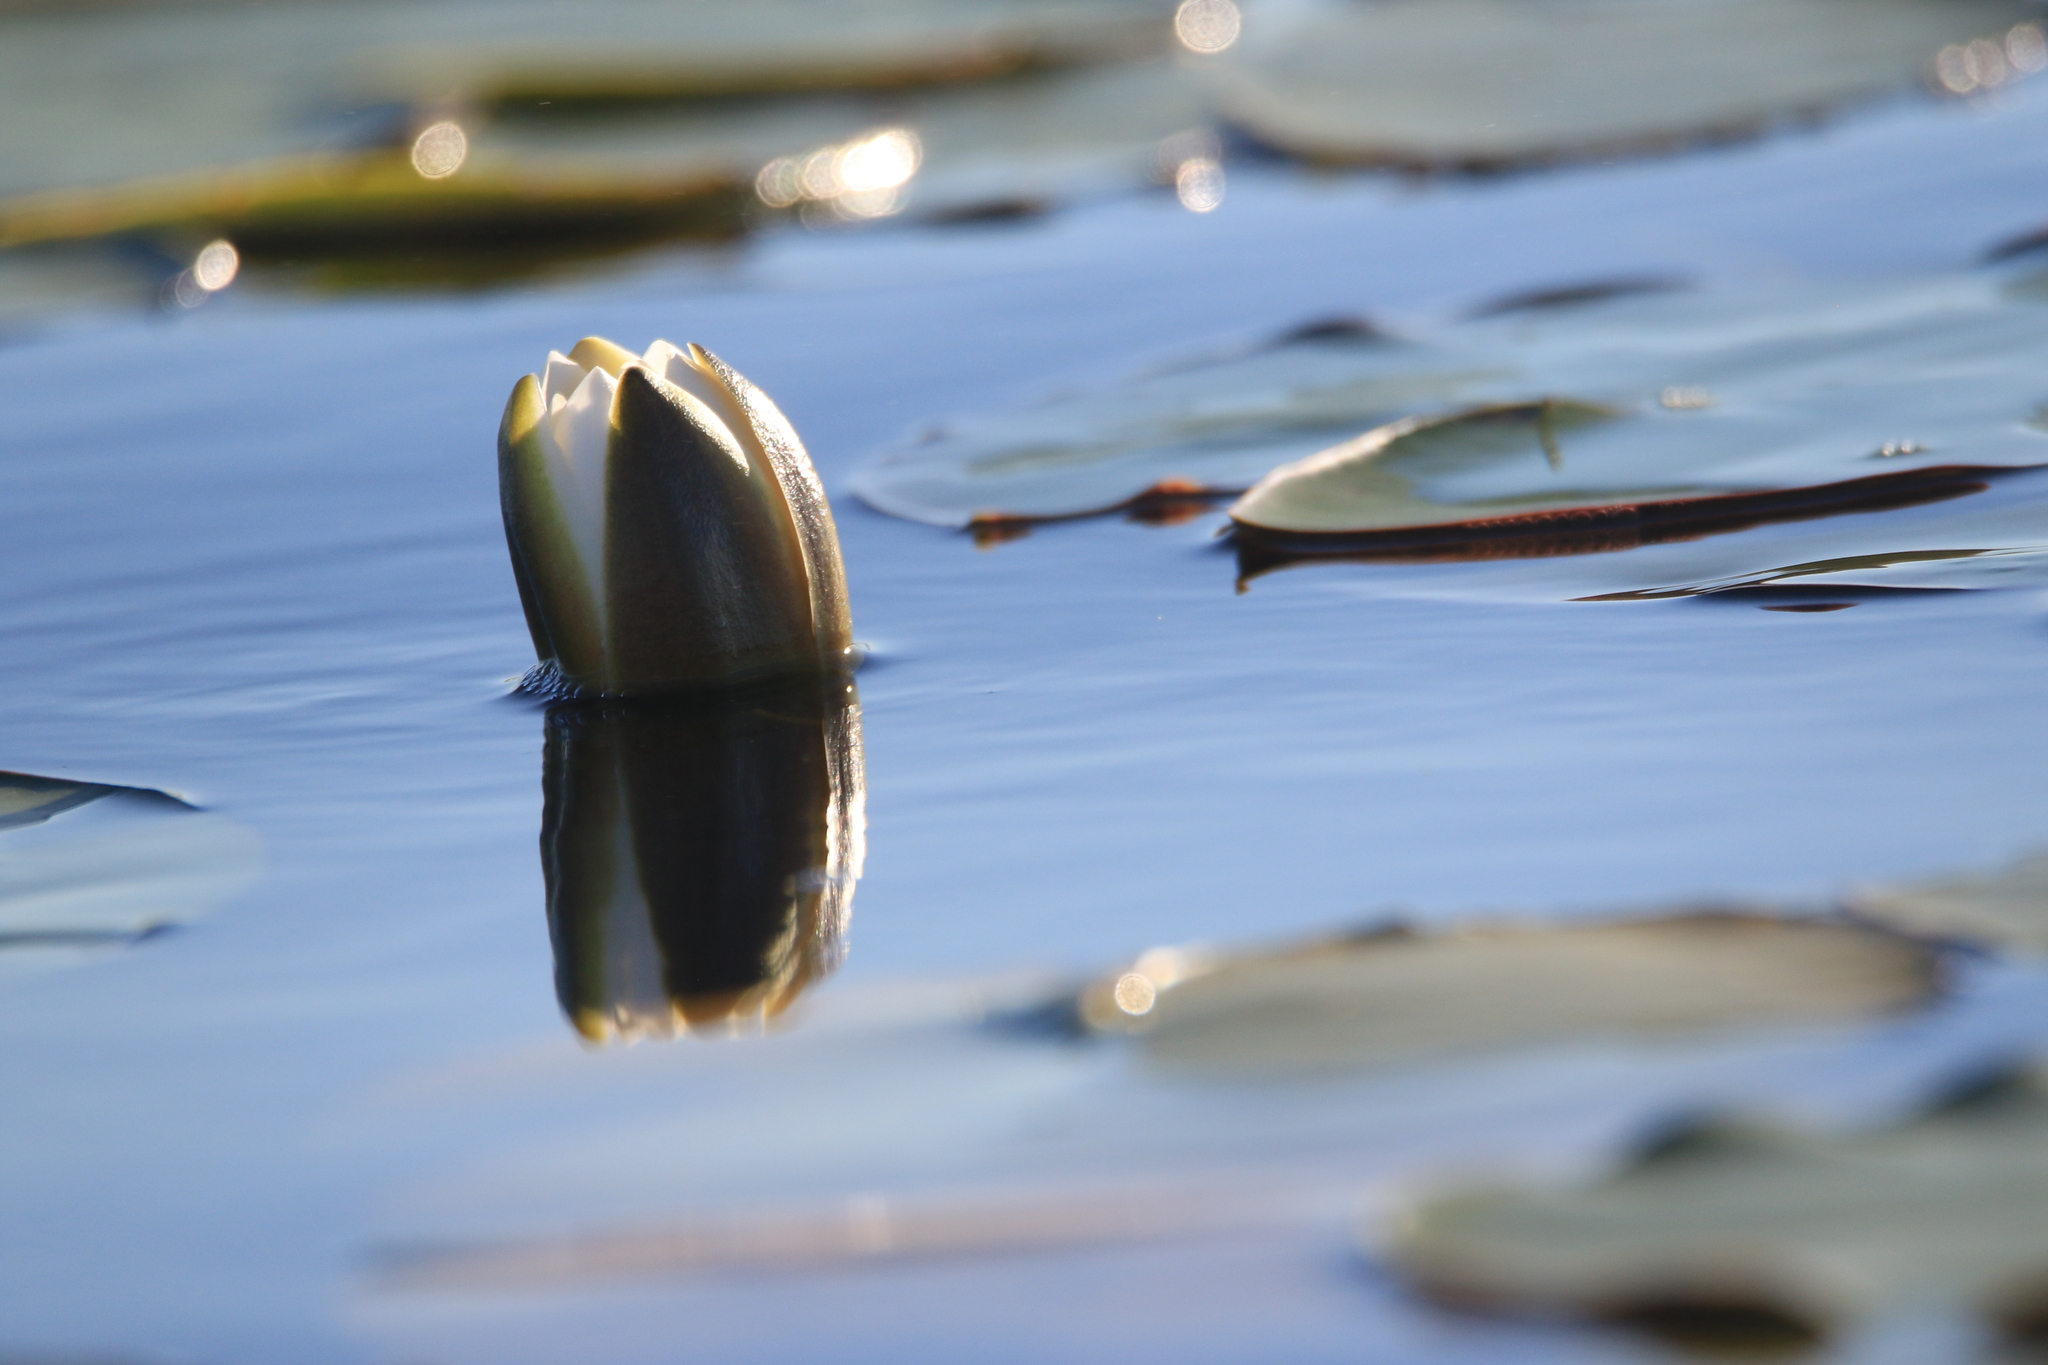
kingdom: Plantae
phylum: Tracheophyta
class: Magnoliopsida
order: Nymphaeales
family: Nymphaeaceae
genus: Nymphaea
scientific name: Nymphaea candida
